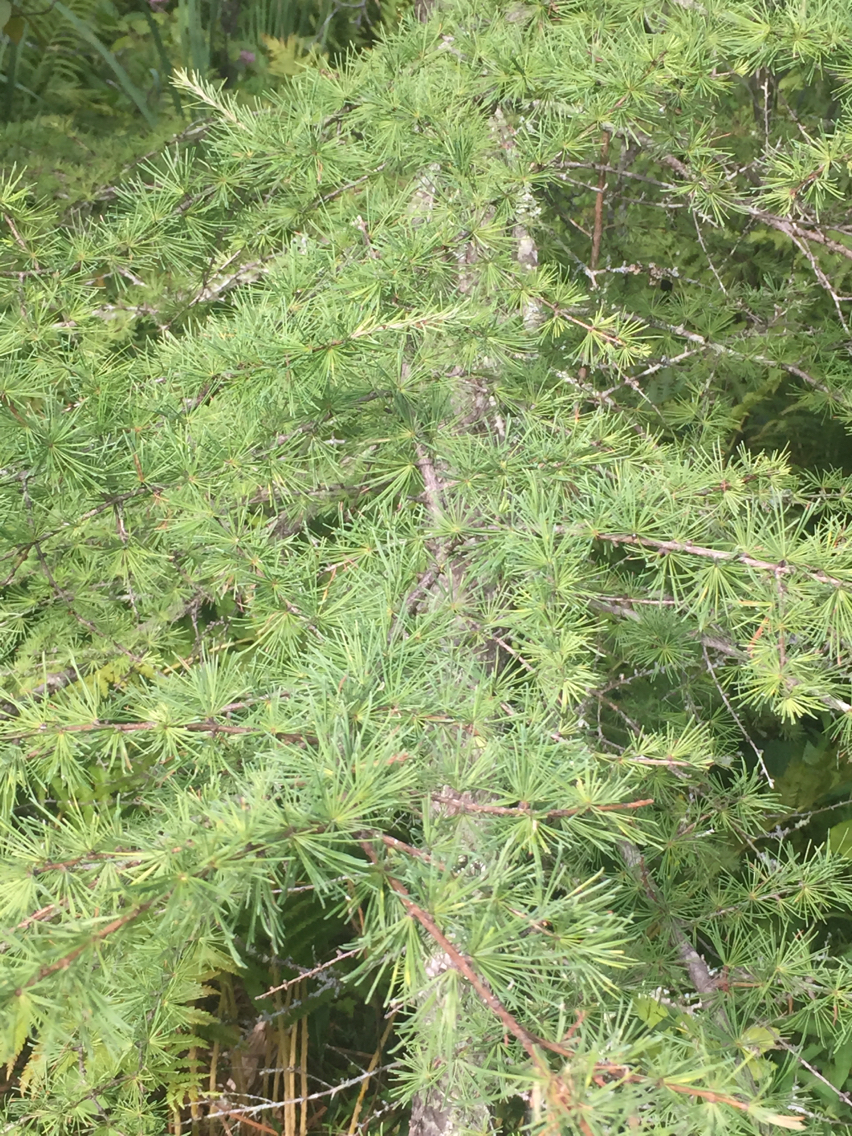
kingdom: Plantae
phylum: Tracheophyta
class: Pinopsida
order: Pinales
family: Pinaceae
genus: Larix
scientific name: Larix laricina
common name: American larch
